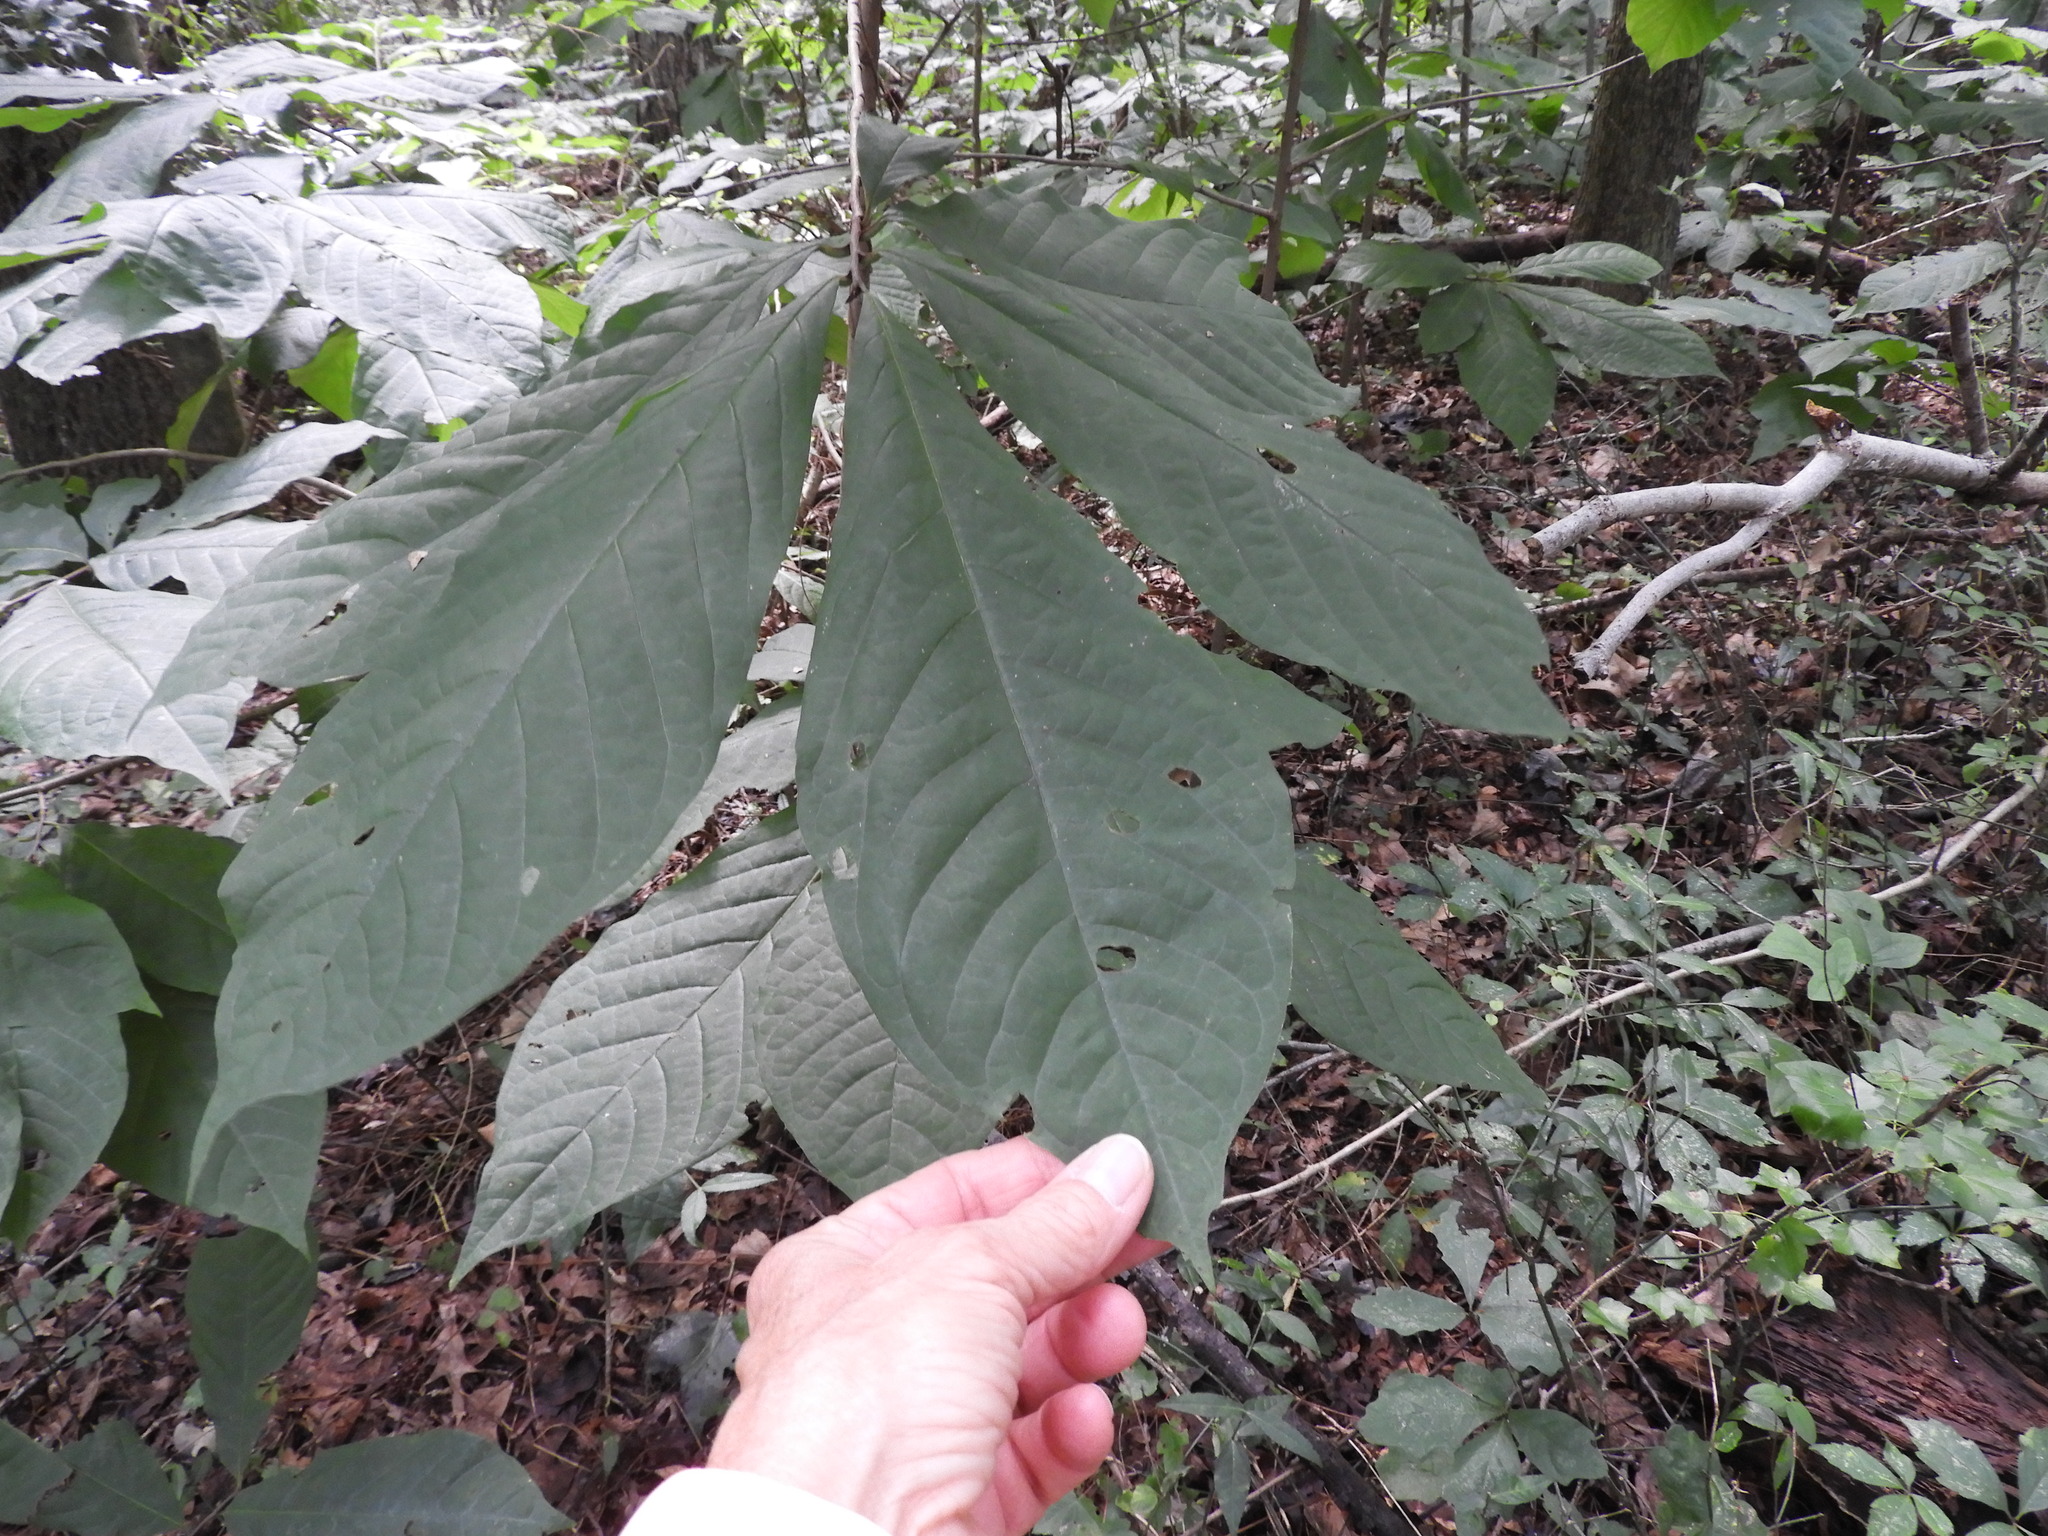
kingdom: Plantae
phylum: Tracheophyta
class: Magnoliopsida
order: Magnoliales
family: Annonaceae
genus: Asimina
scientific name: Asimina triloba
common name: Dog-banana
